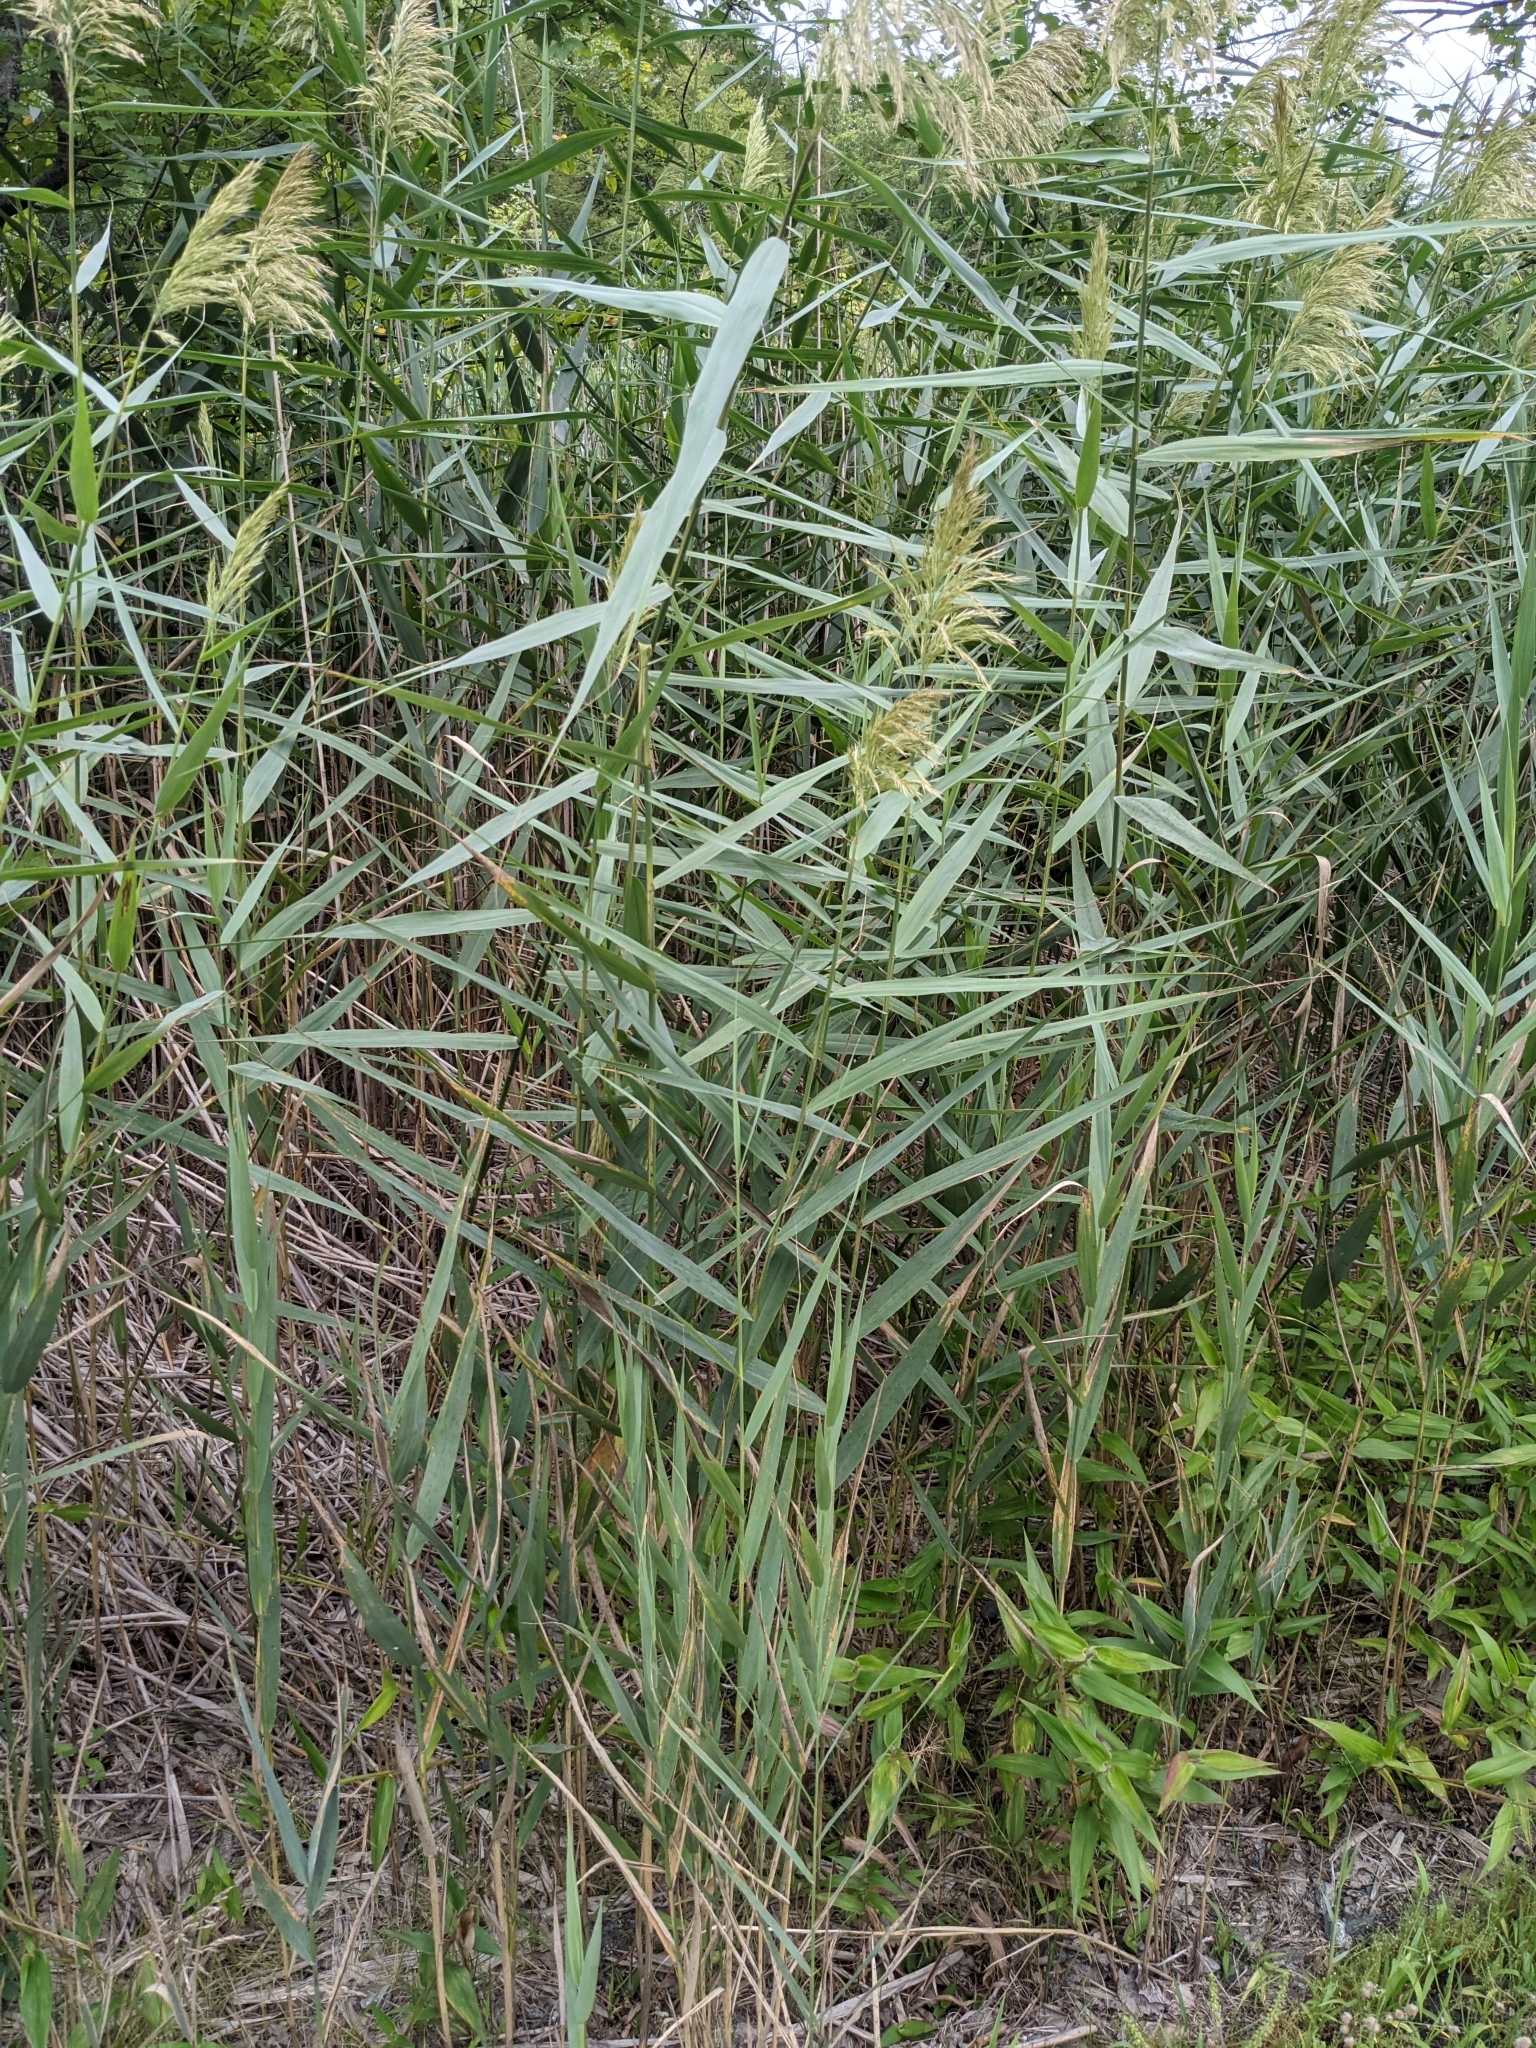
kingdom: Plantae
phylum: Tracheophyta
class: Liliopsida
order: Poales
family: Poaceae
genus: Phragmites
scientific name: Phragmites australis
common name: Common reed
